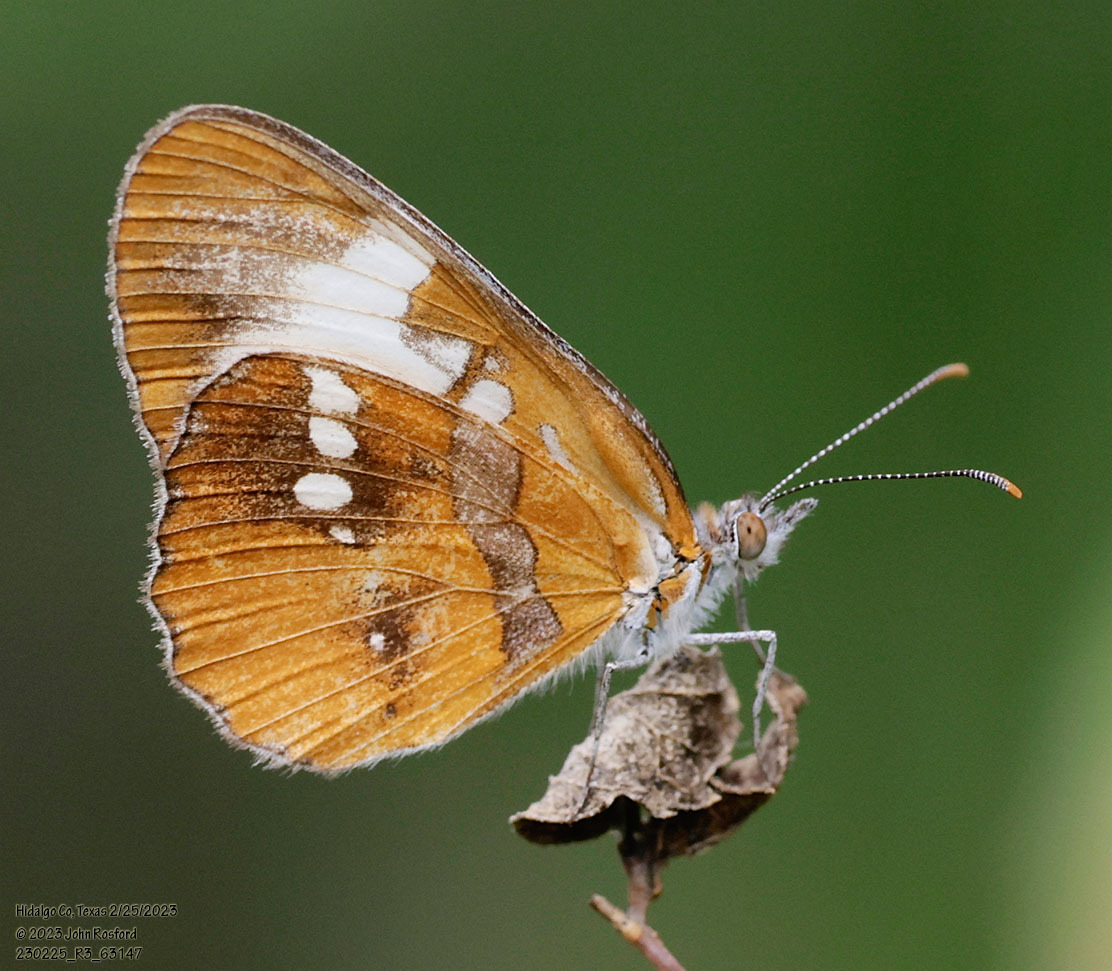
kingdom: Animalia
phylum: Arthropoda
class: Insecta
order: Lepidoptera
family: Nymphalidae
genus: Mestra
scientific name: Mestra amymone
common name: Common mestra
